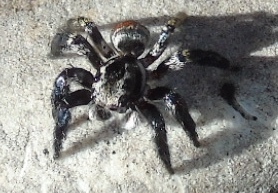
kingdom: Animalia
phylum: Arthropoda
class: Arachnida
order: Araneae
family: Salticidae
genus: Corythalia
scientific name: Corythalia
